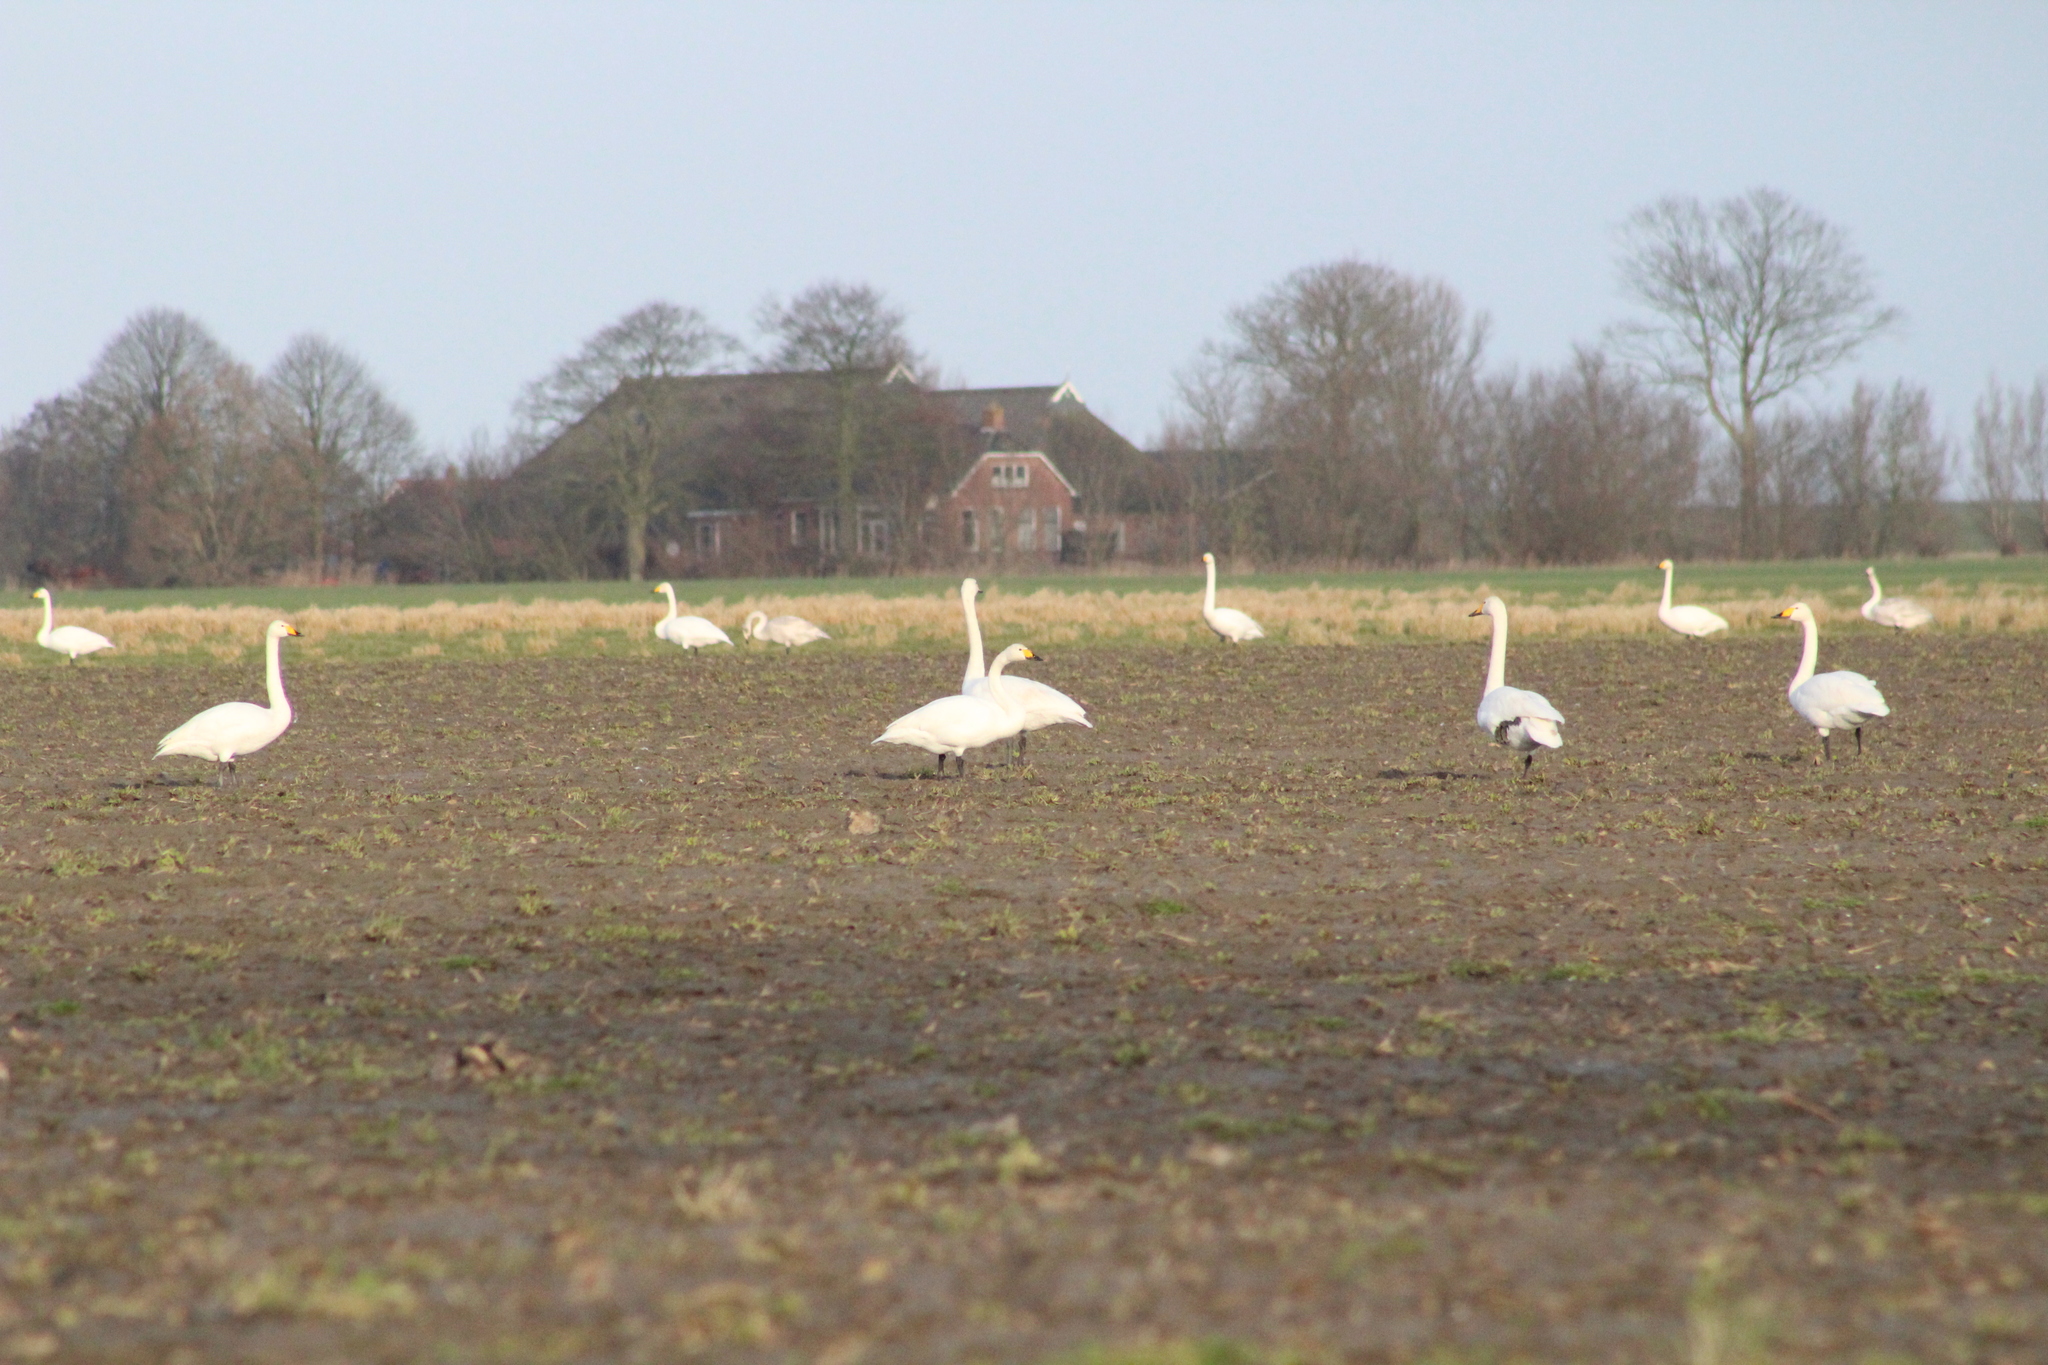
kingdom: Animalia
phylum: Chordata
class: Aves
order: Anseriformes
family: Anatidae
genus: Cygnus
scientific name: Cygnus cygnus
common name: Whooper swan
